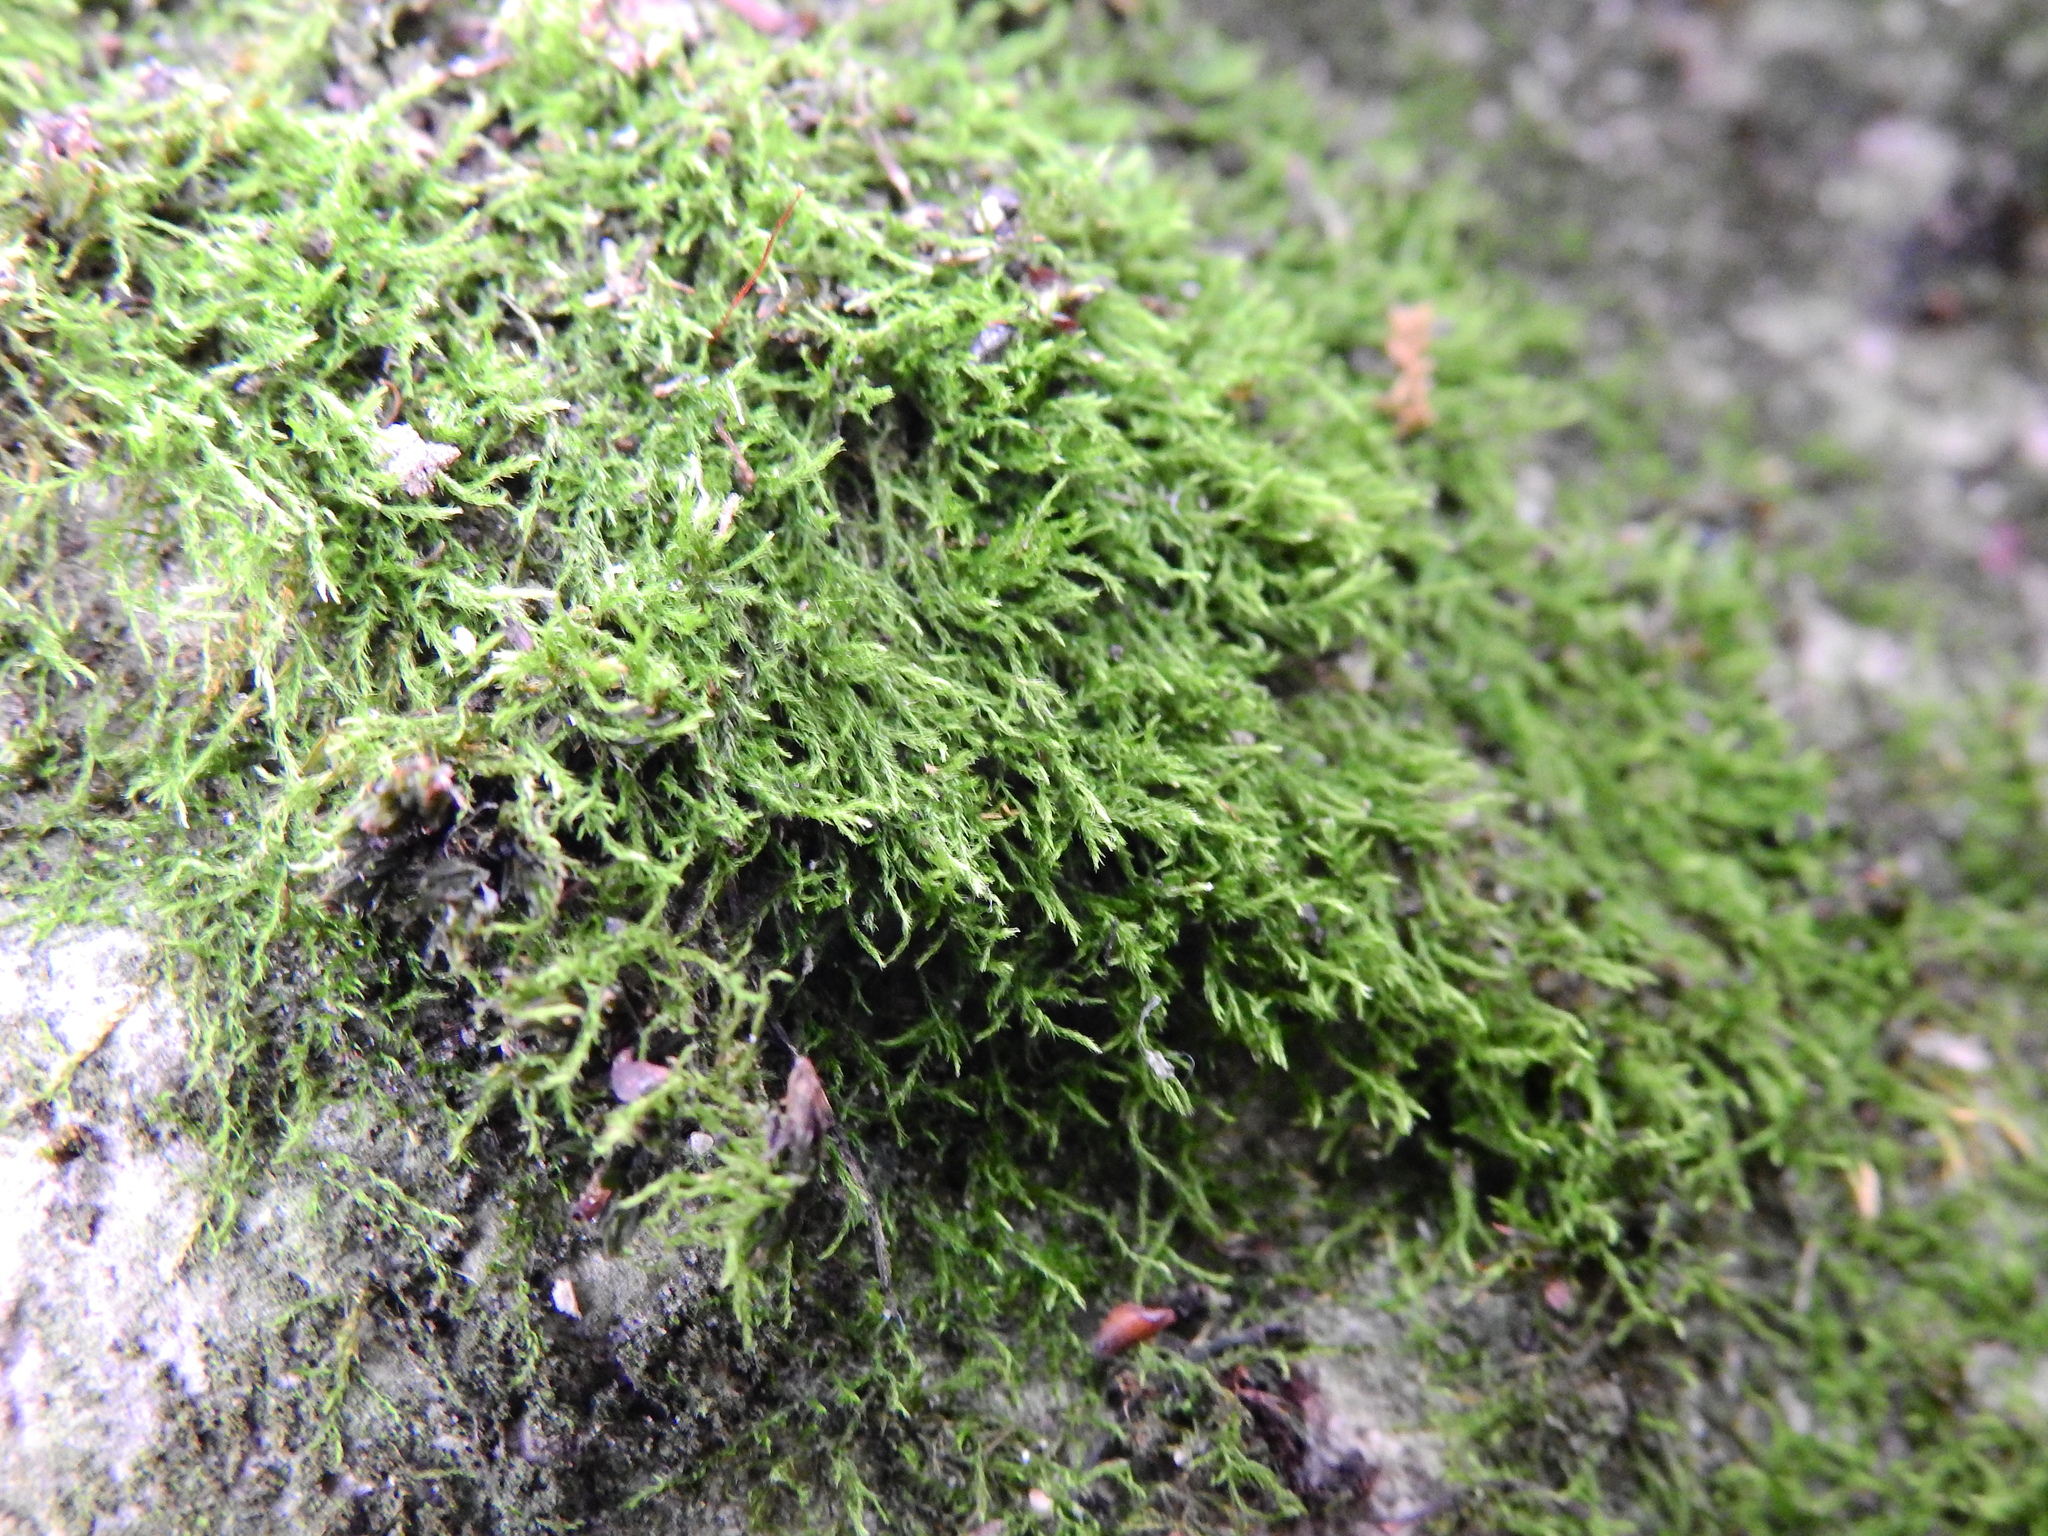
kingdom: Plantae
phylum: Bryophyta
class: Bryopsida
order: Hypnales
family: Amblystegiaceae
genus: Amblystegium
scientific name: Amblystegium serpens
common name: Jurkatzka's feather moss
